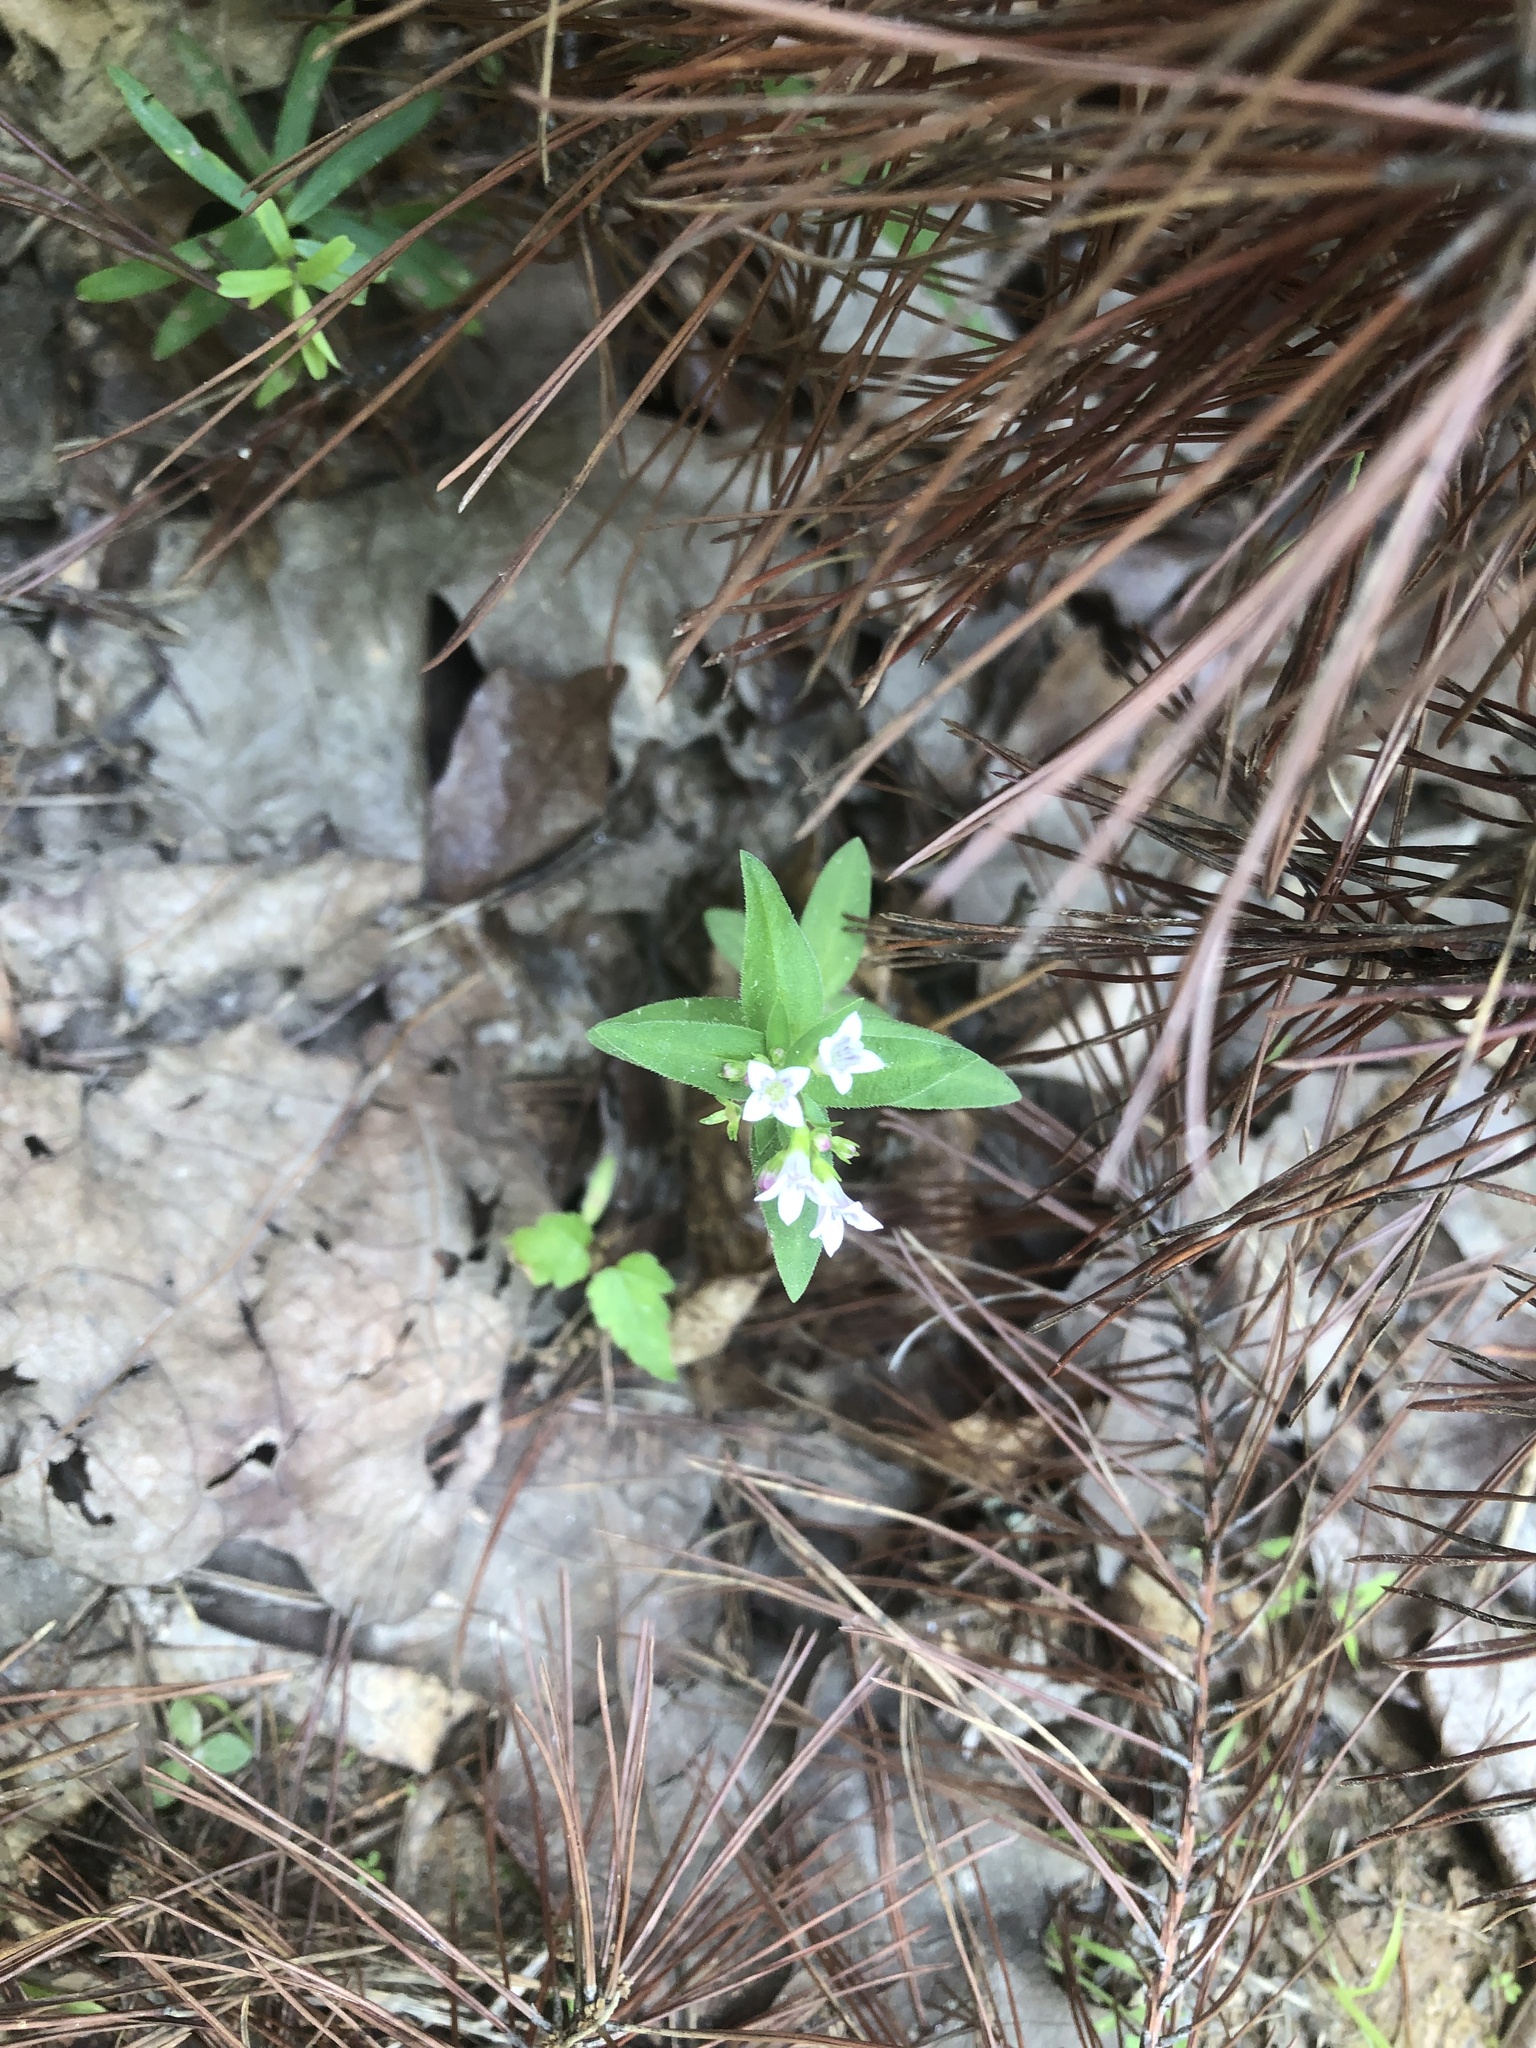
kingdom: Plantae
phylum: Tracheophyta
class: Magnoliopsida
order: Gentianales
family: Rubiaceae
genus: Houstonia
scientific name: Houstonia purpurea
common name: Summer bluet
